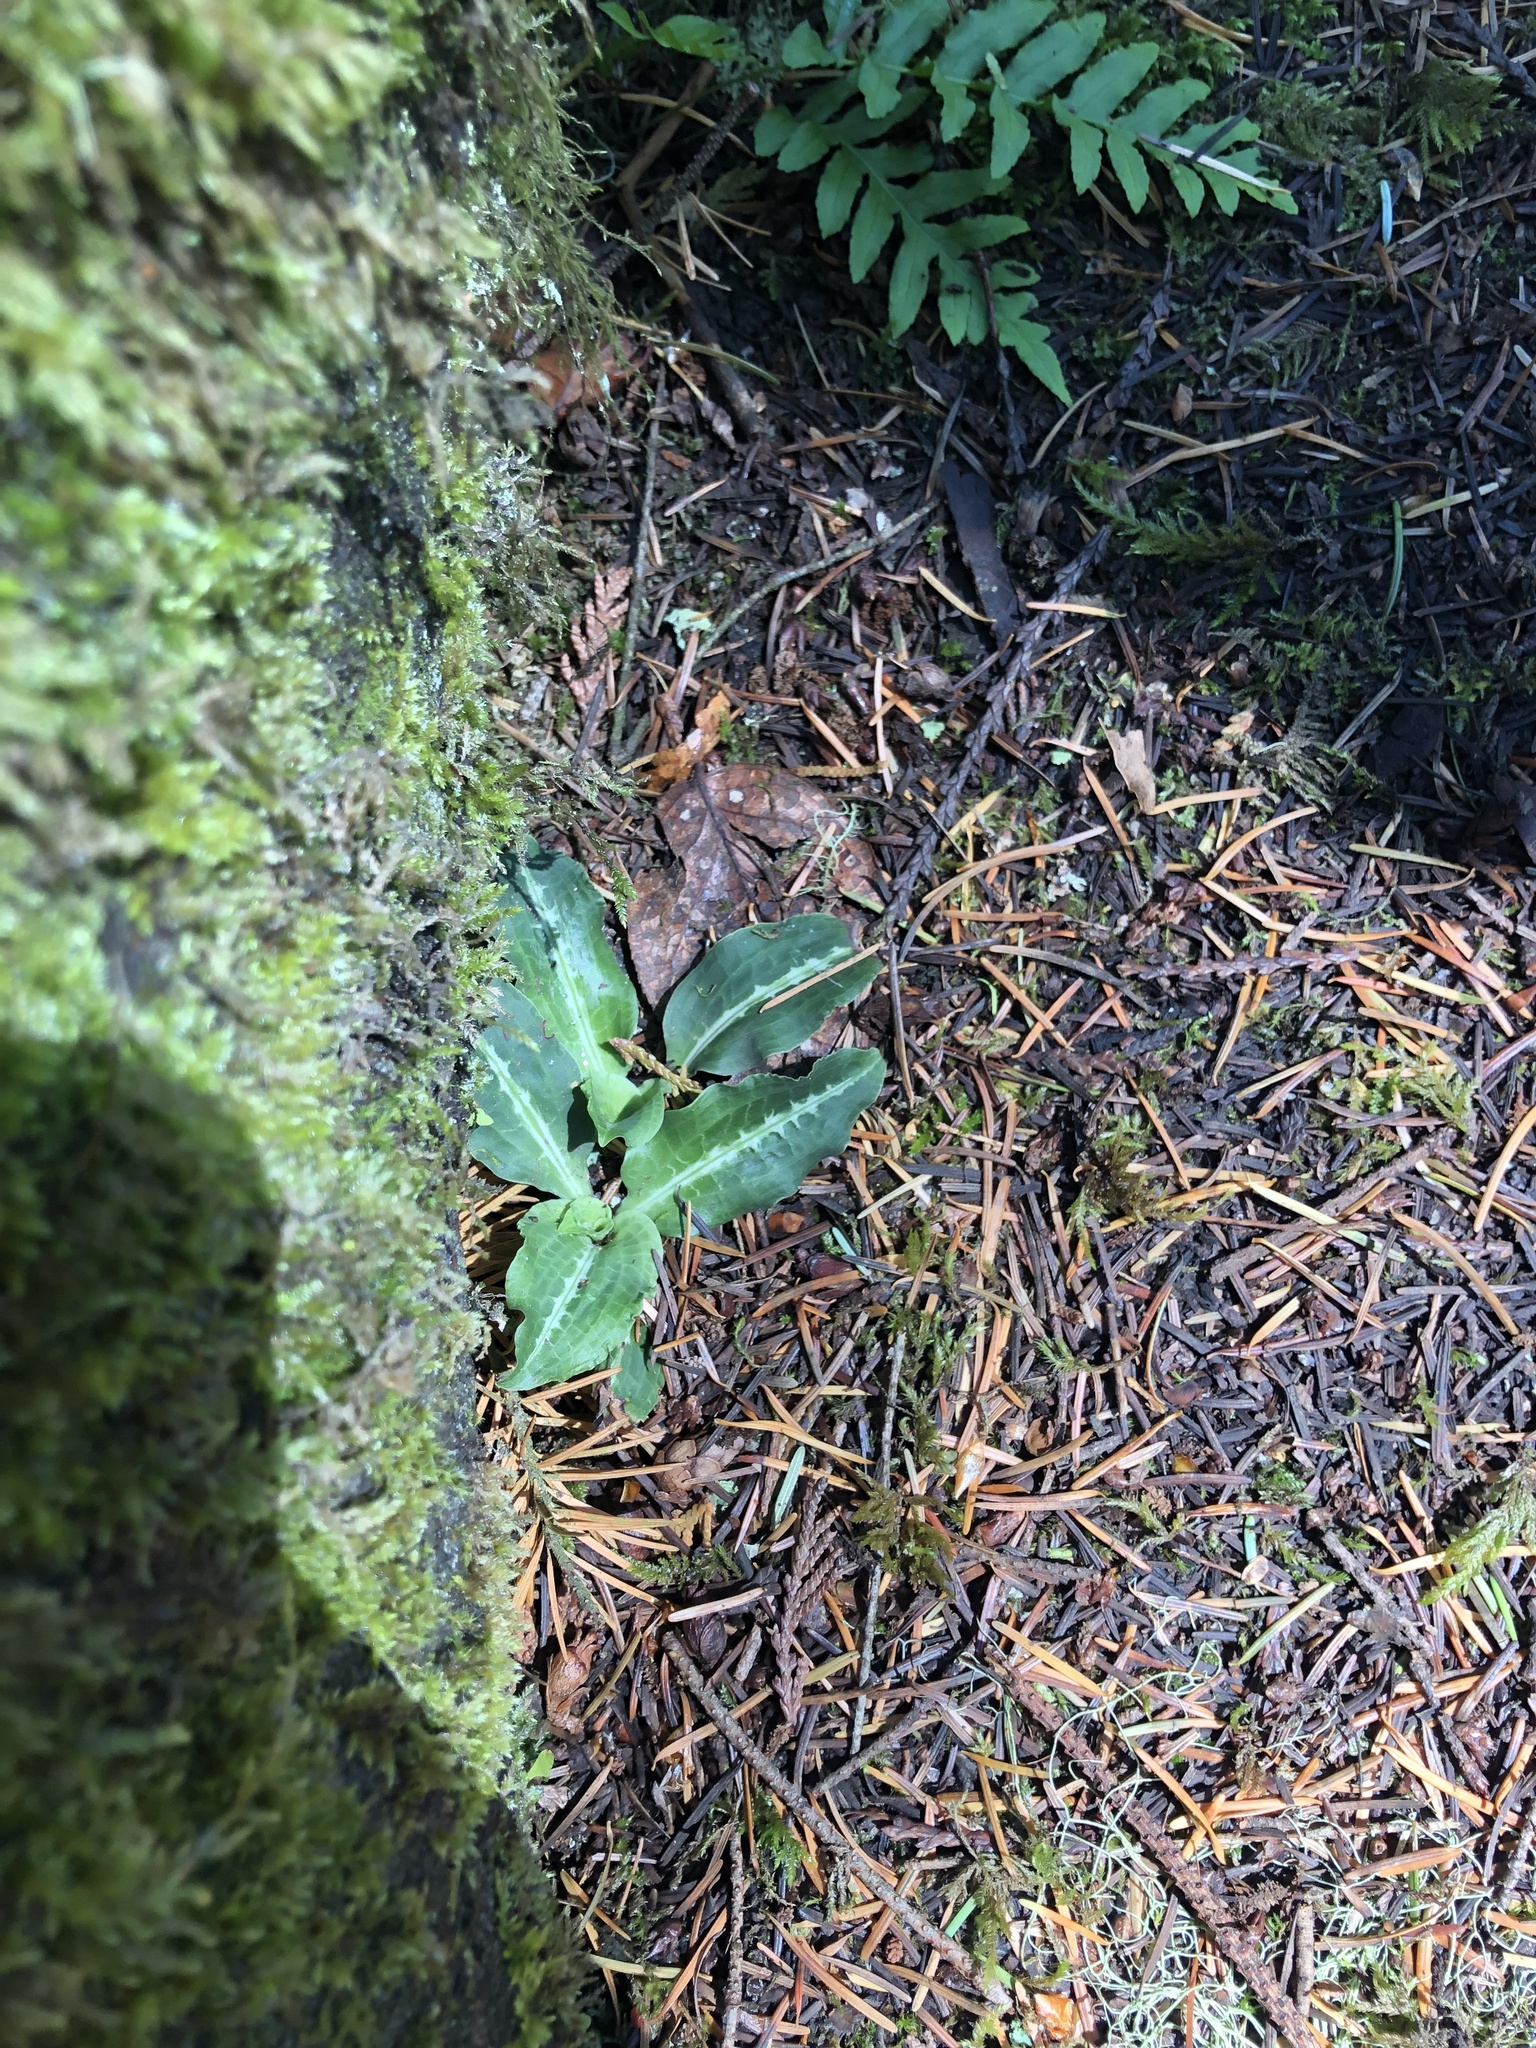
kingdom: Plantae
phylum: Tracheophyta
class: Liliopsida
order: Asparagales
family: Orchidaceae
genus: Goodyera
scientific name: Goodyera oblongifolia
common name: Giant rattlesnake-plantain
